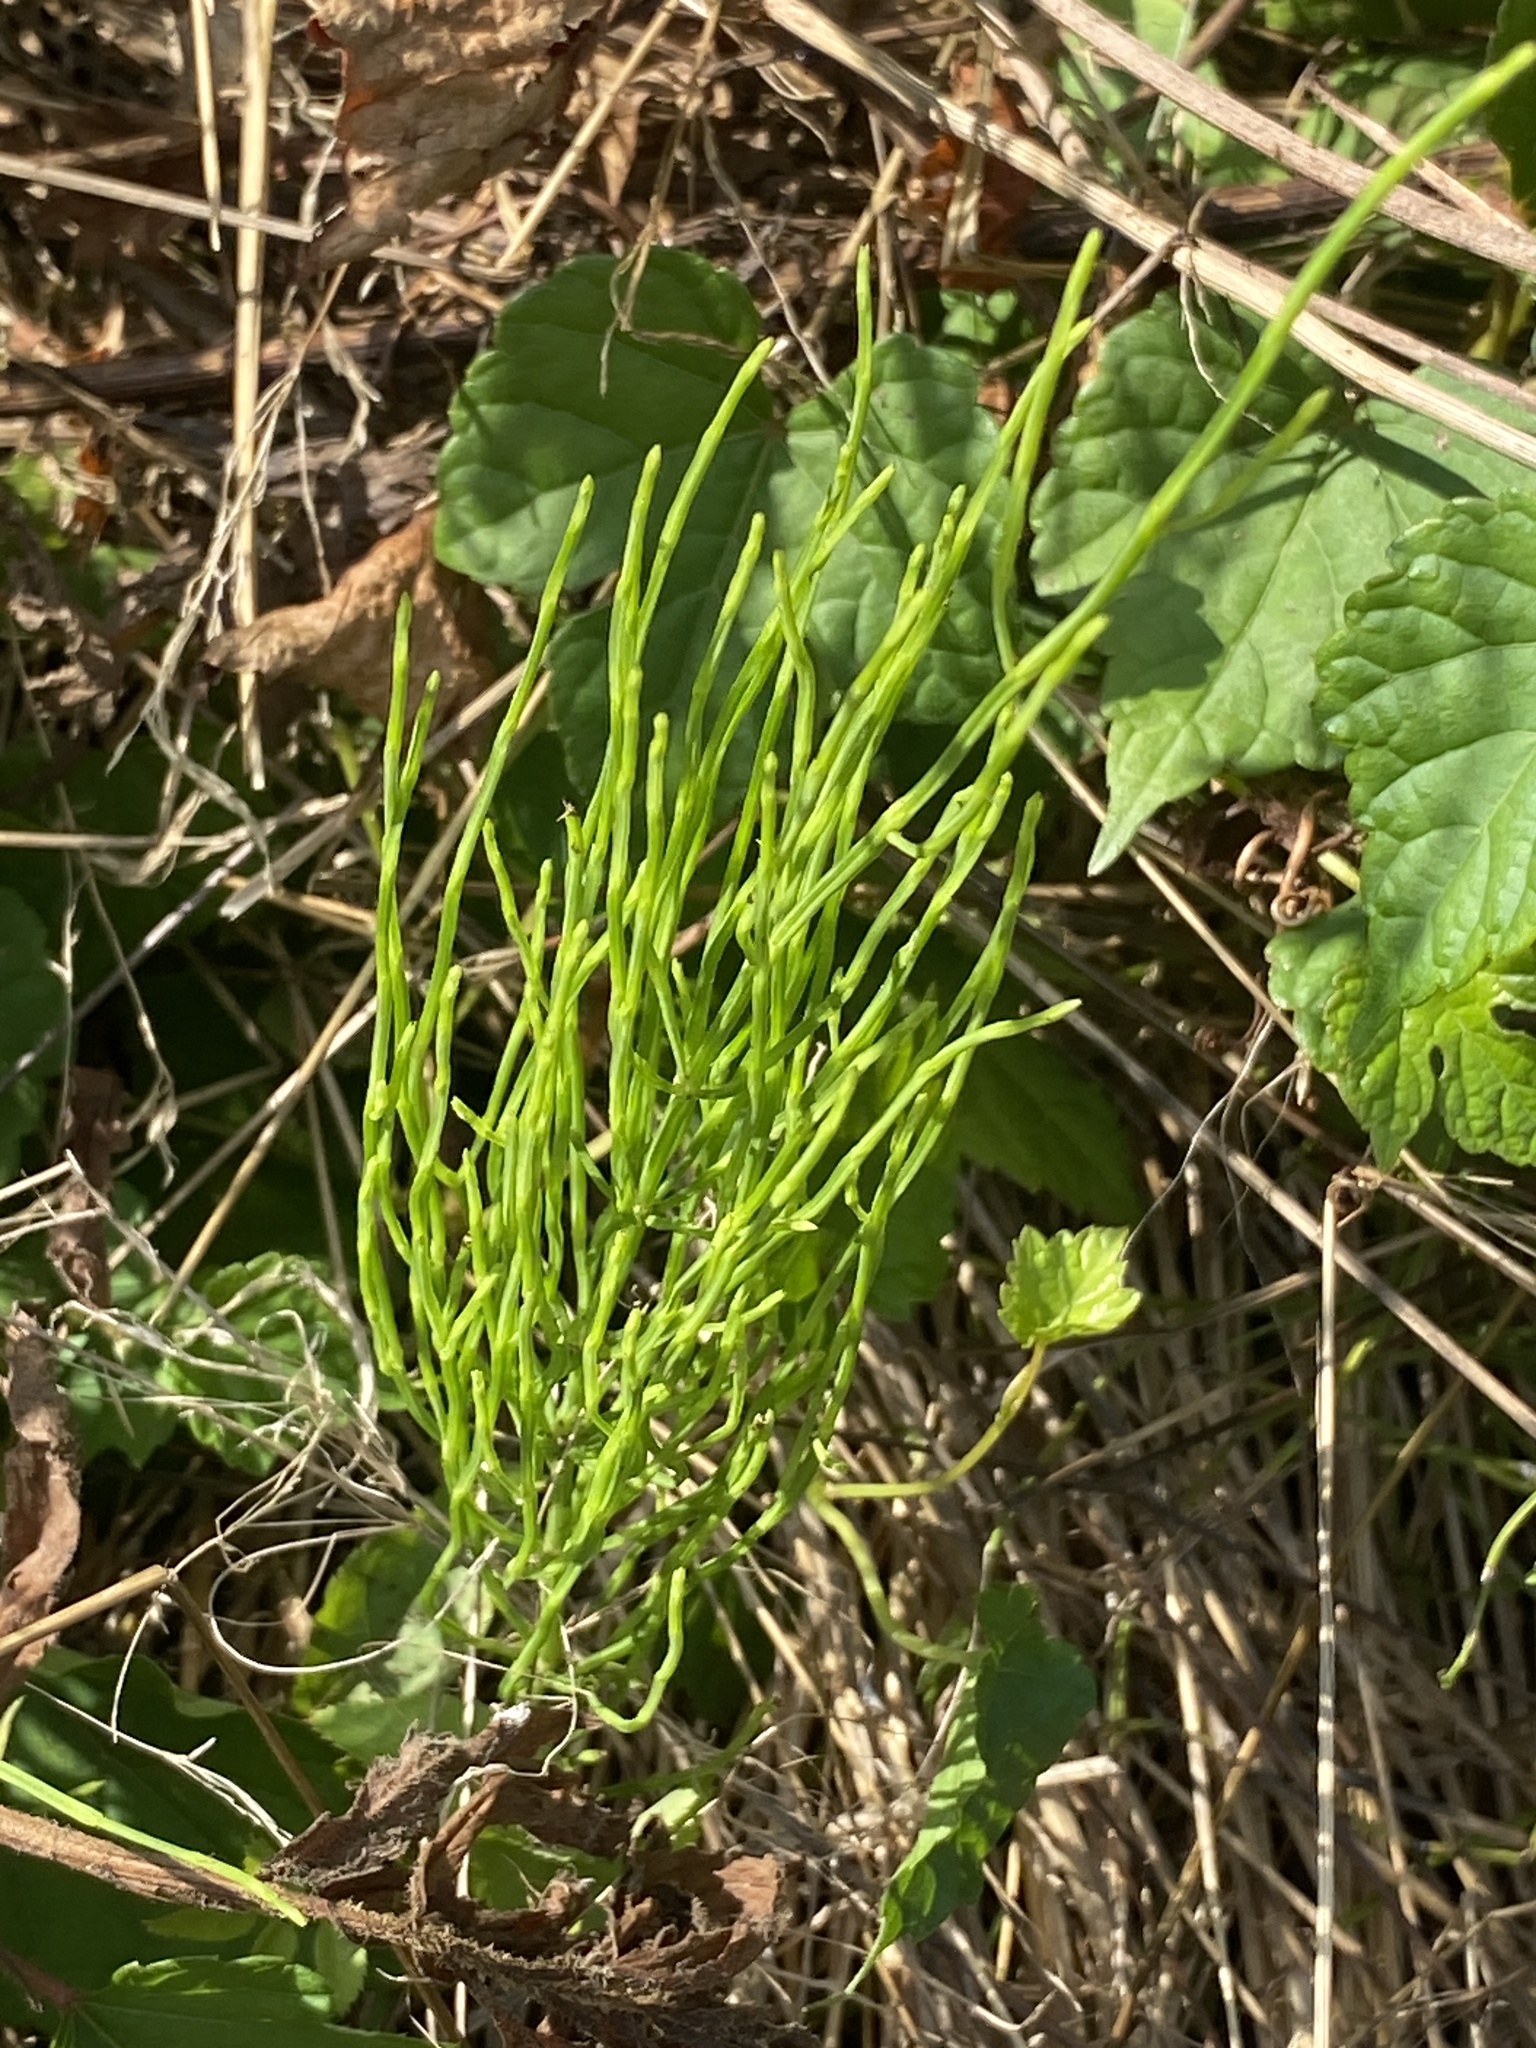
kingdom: Plantae
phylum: Tracheophyta
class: Polypodiopsida
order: Equisetales
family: Equisetaceae
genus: Equisetum
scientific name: Equisetum arvense
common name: Field horsetail
